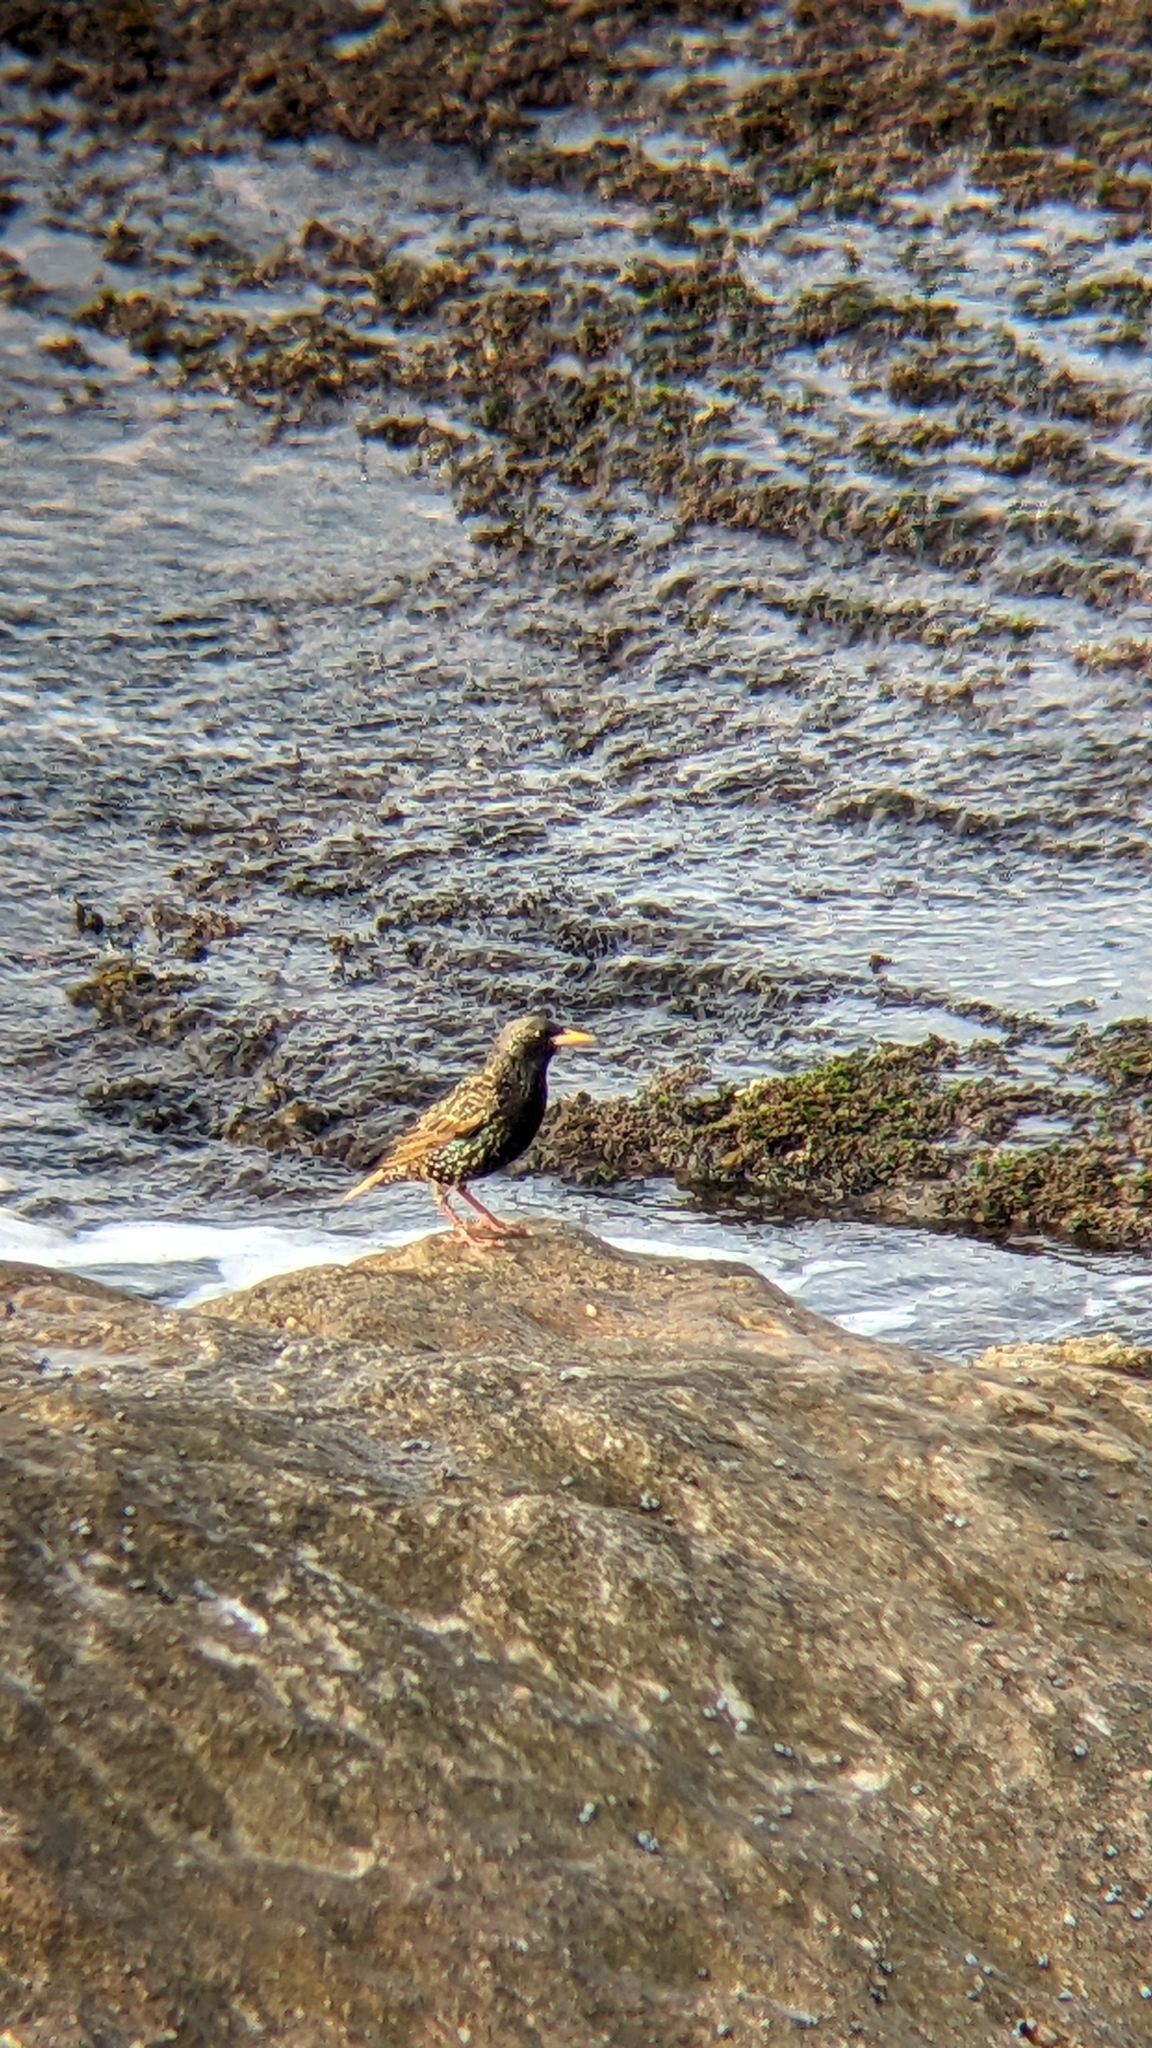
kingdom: Animalia
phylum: Chordata
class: Aves
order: Passeriformes
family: Sturnidae
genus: Sturnus
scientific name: Sturnus vulgaris
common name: Common starling
